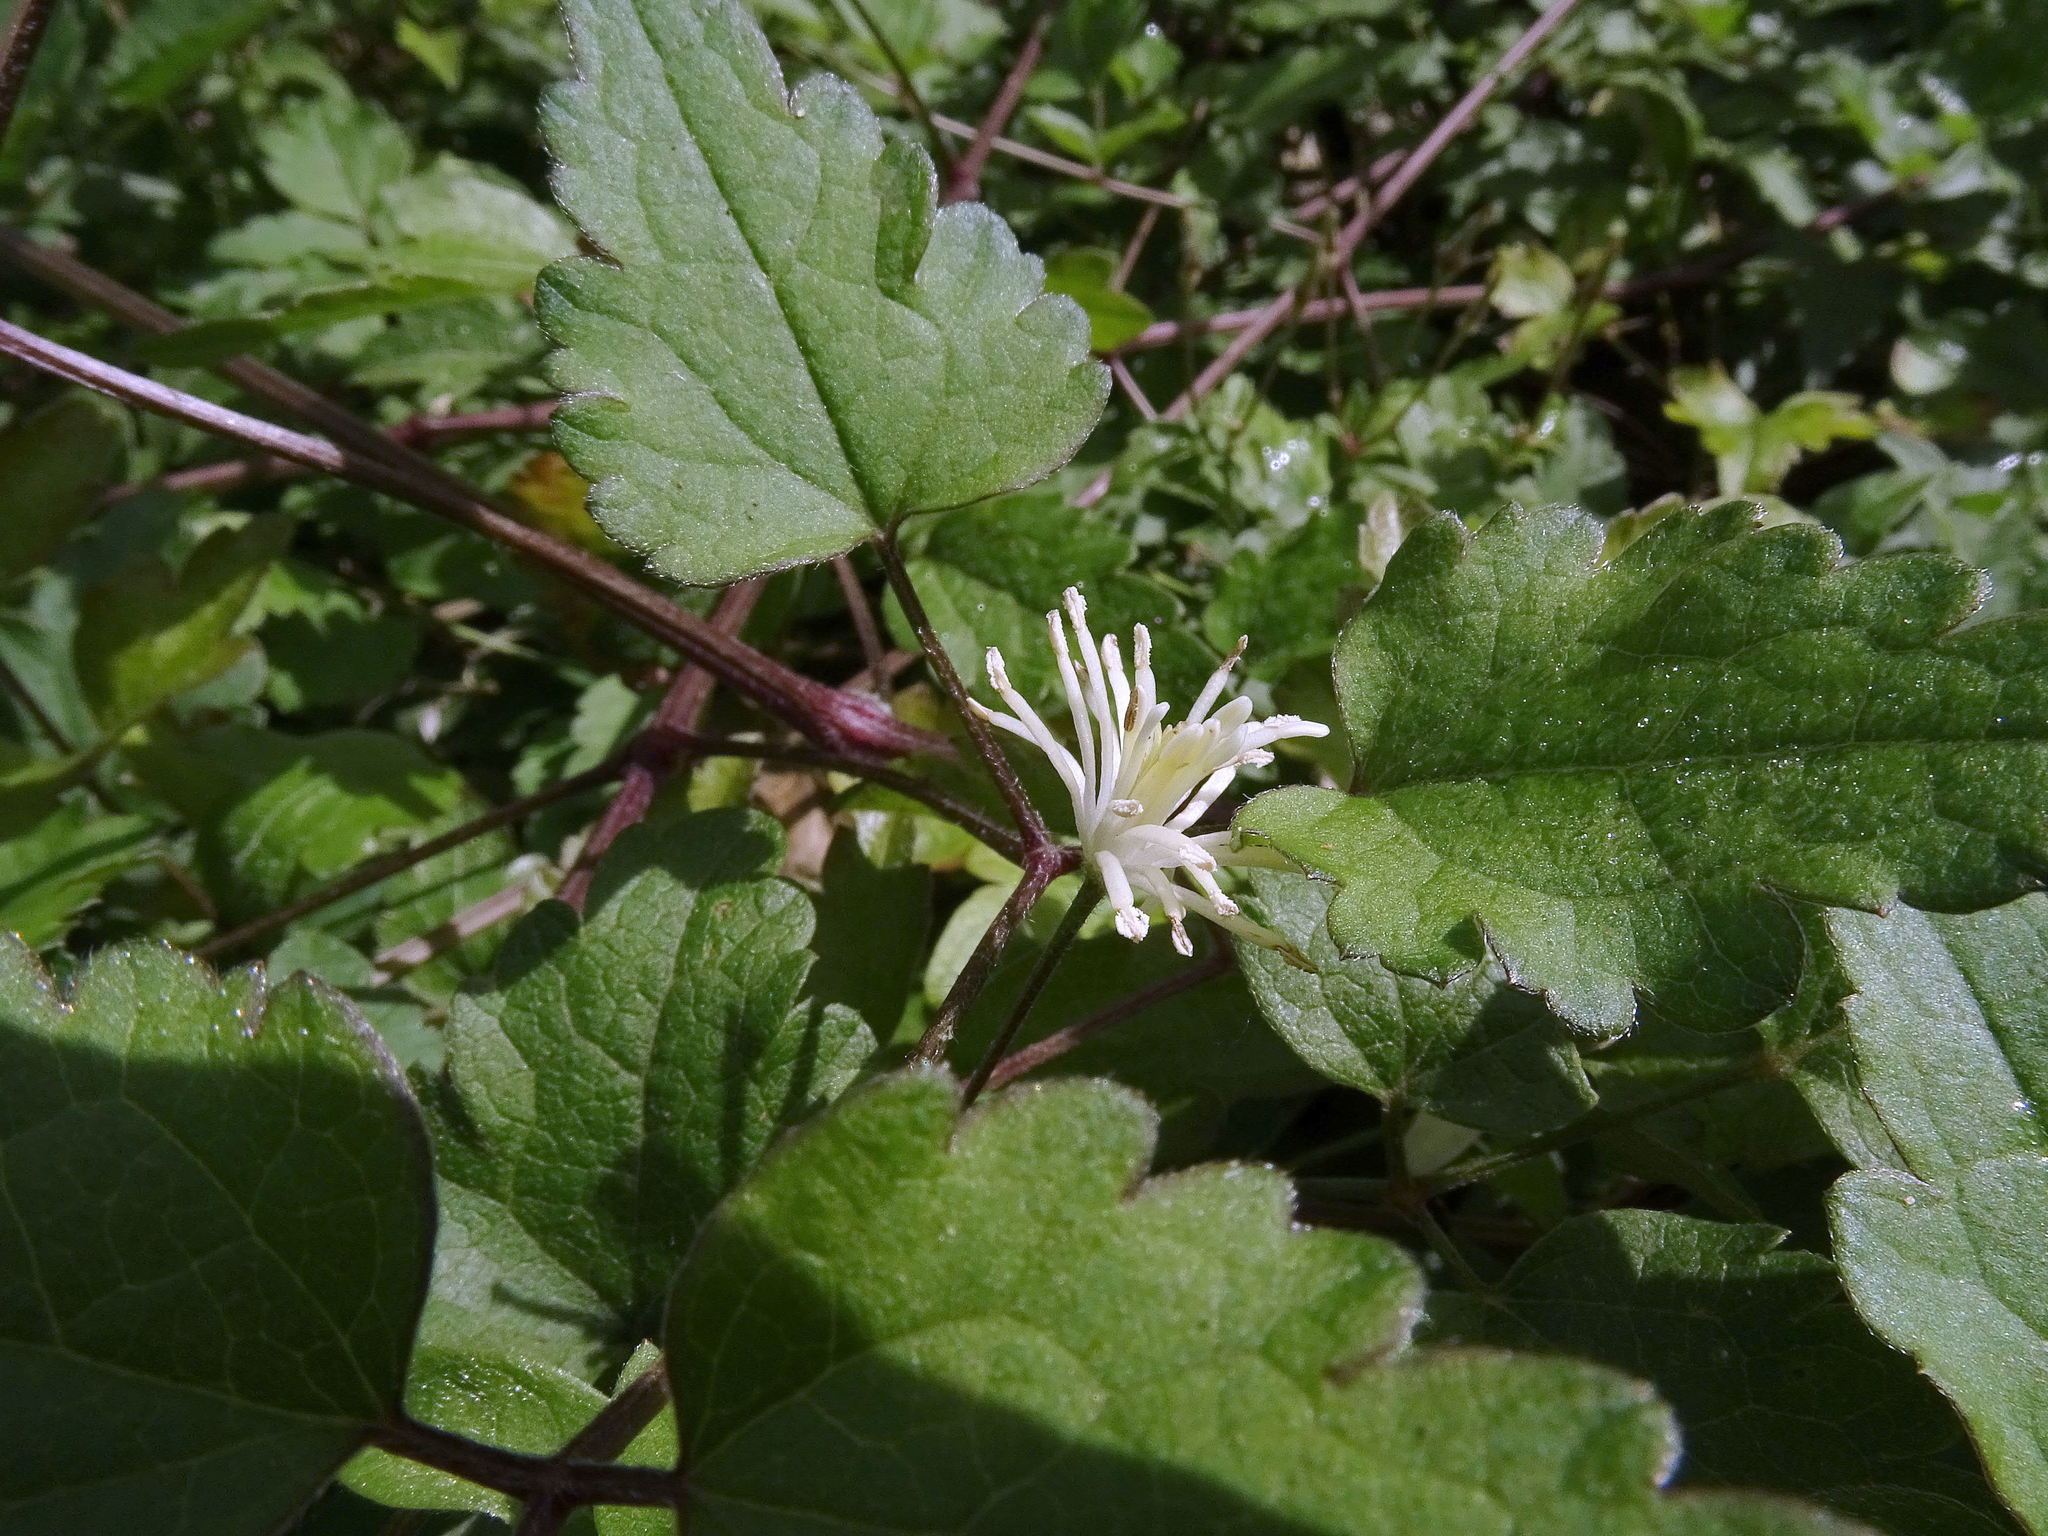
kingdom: Plantae
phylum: Tracheophyta
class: Magnoliopsida
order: Ranunculales
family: Ranunculaceae
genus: Clematis
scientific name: Clematis vitalba
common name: Evergreen clematis
